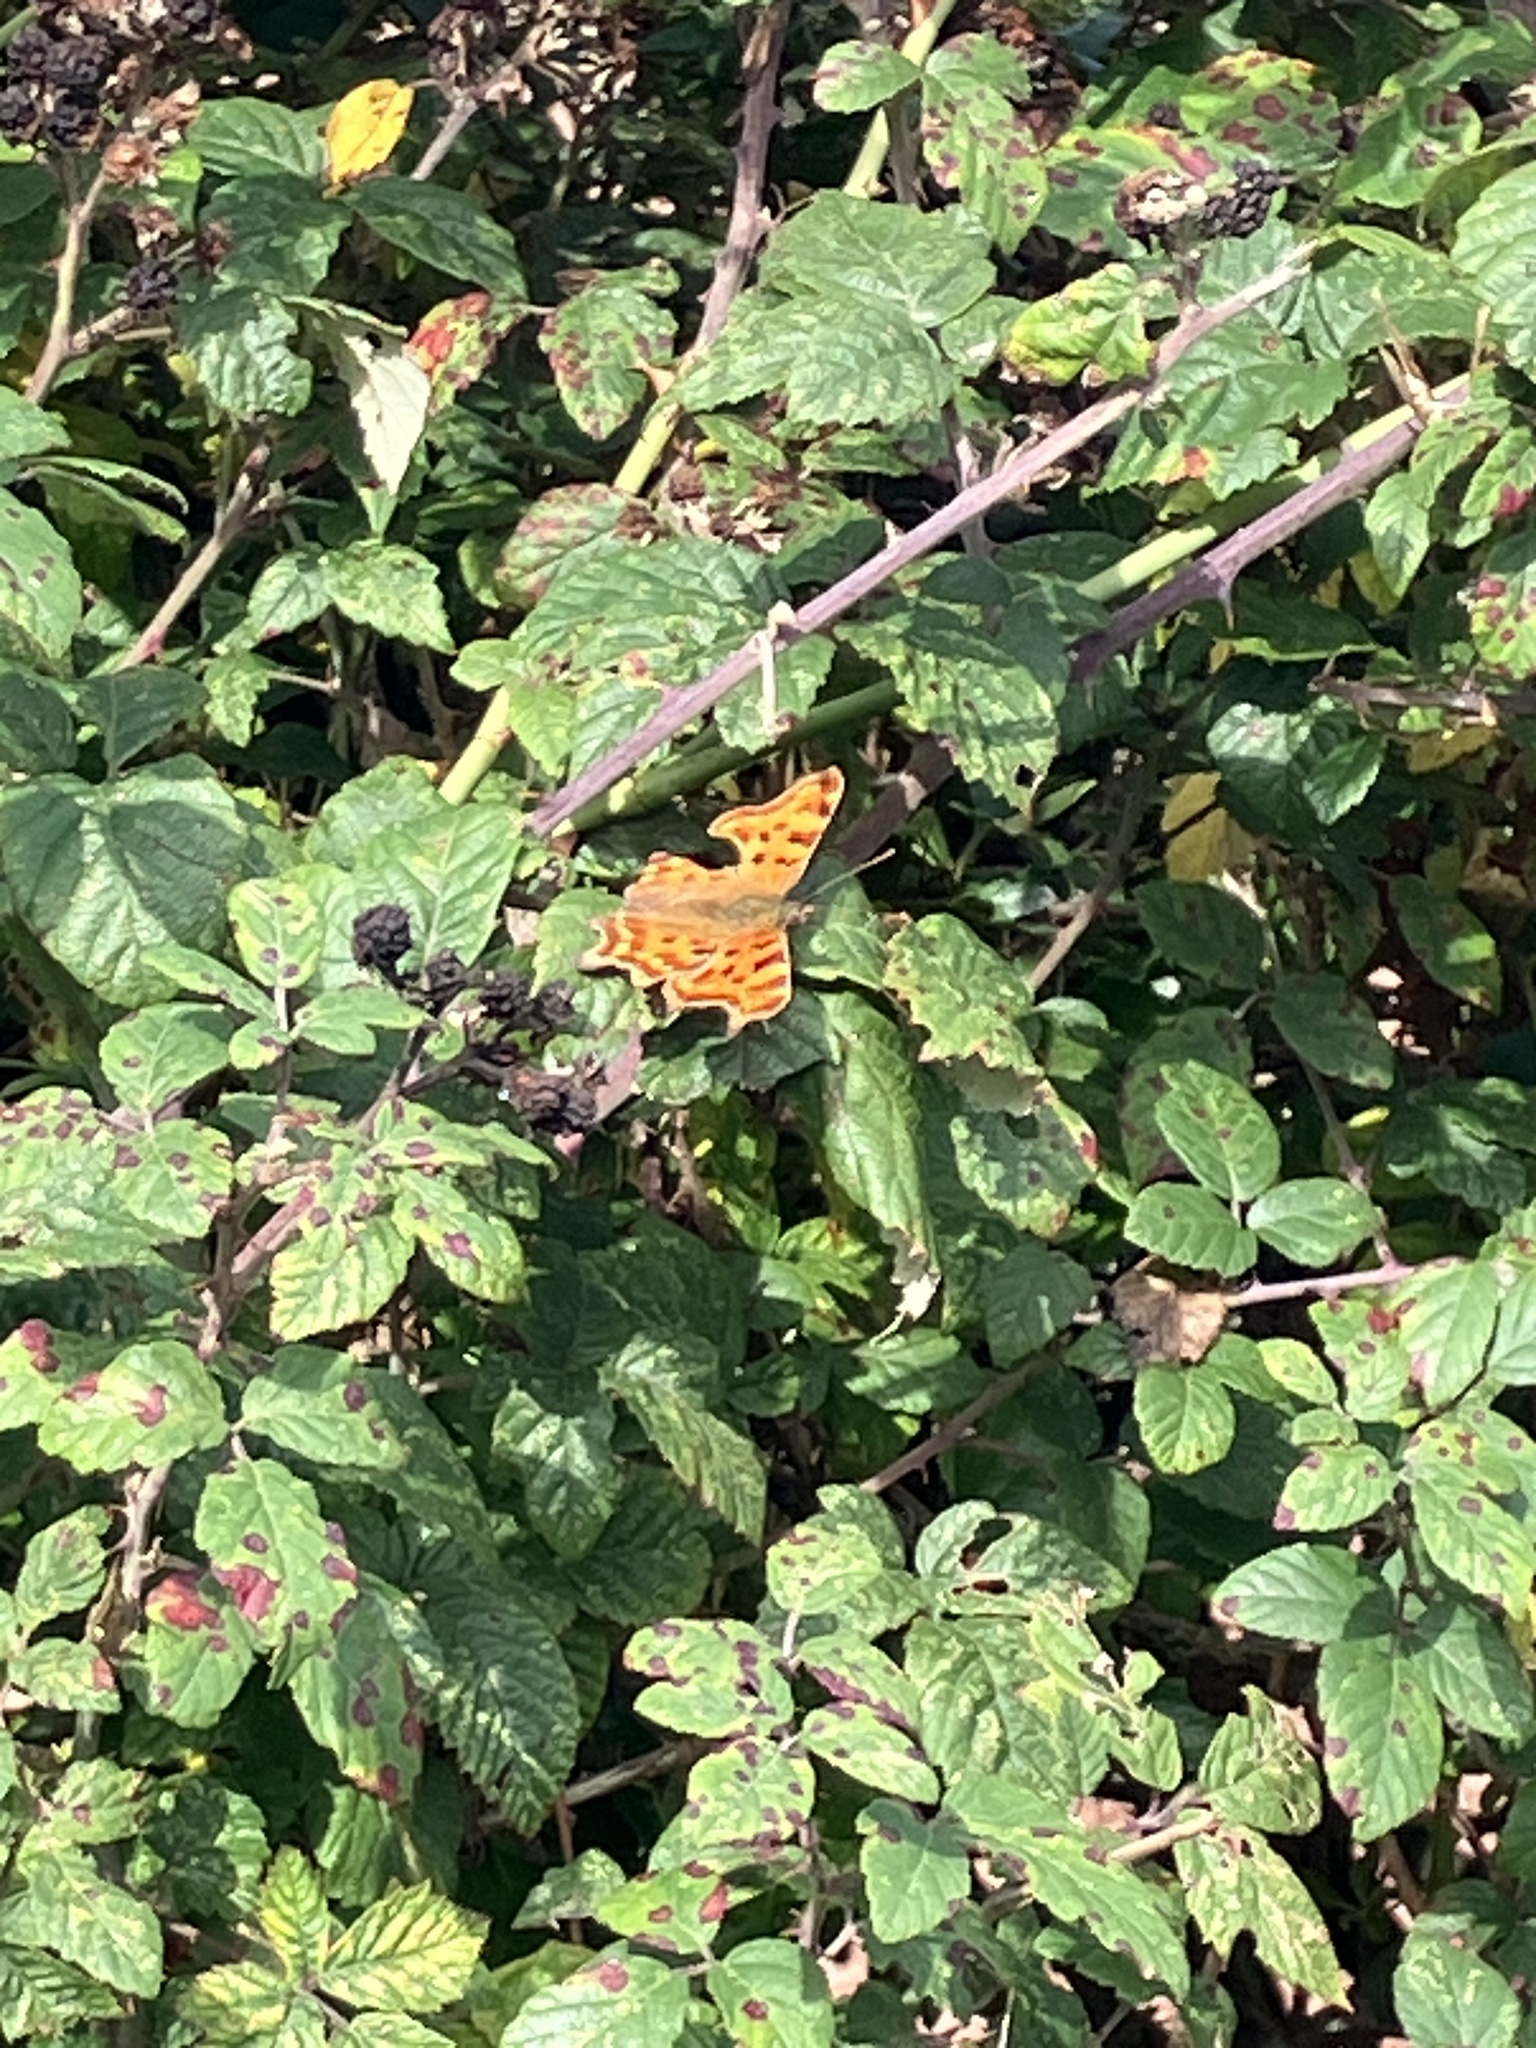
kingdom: Animalia
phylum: Arthropoda
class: Insecta
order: Lepidoptera
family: Nymphalidae
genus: Polygonia
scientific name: Polygonia c-album
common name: Comma
